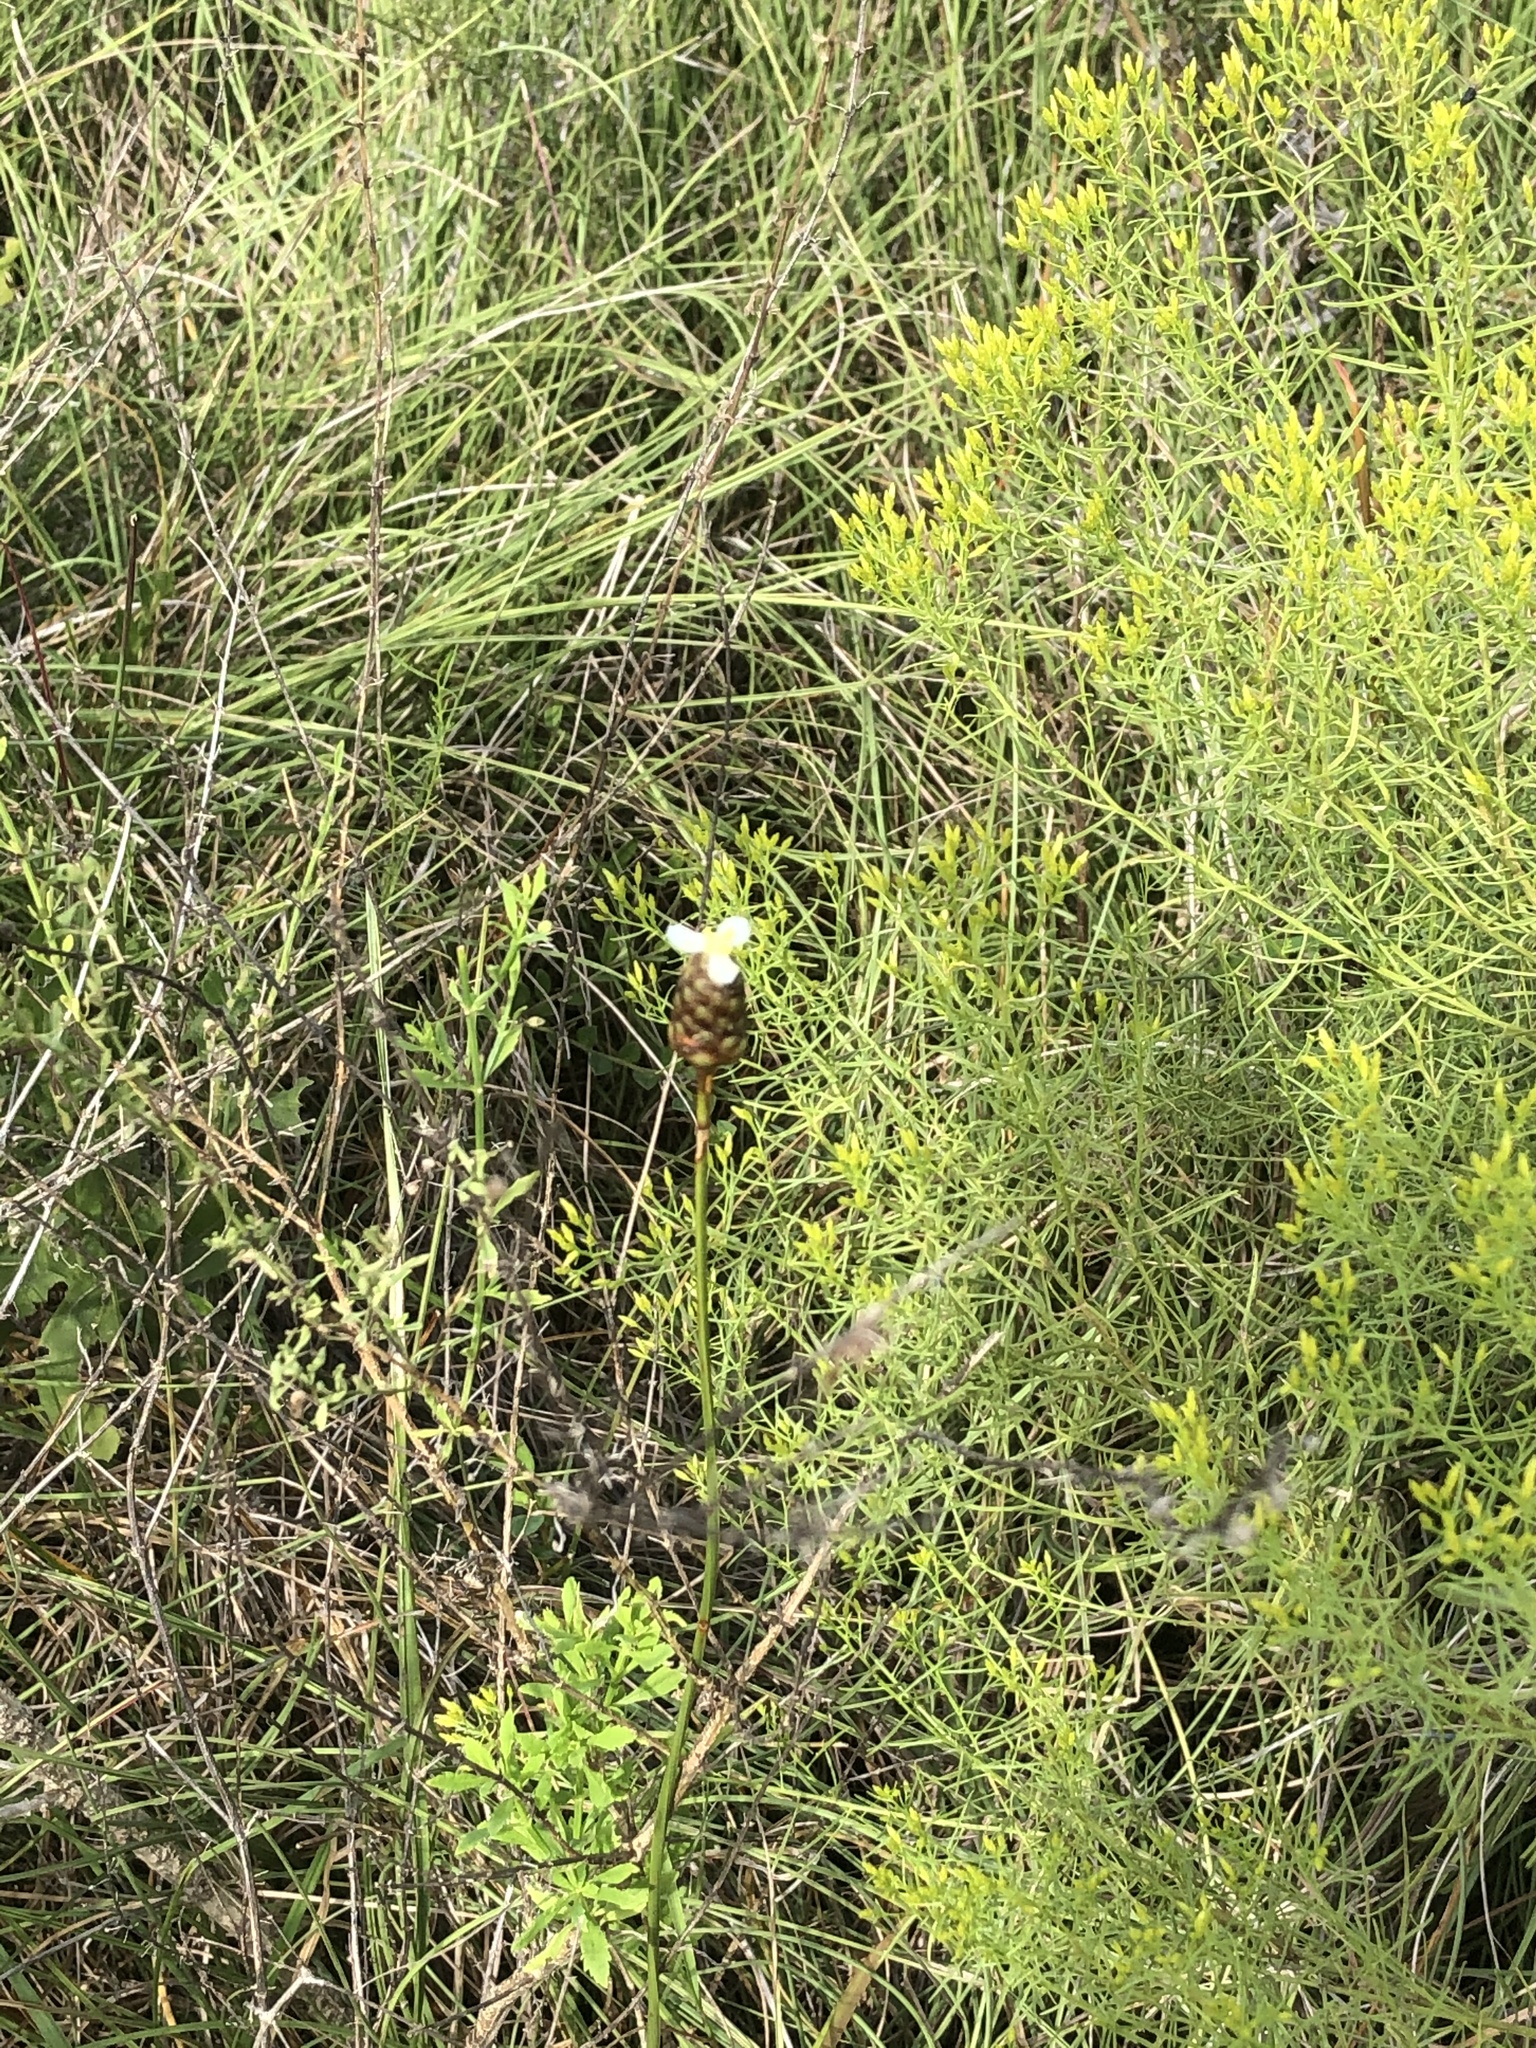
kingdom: Plantae
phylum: Tracheophyta
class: Magnoliopsida
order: Asterales
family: Asteraceae
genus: Euthamia
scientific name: Euthamia caroliniana
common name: Coastal plain goldentop
